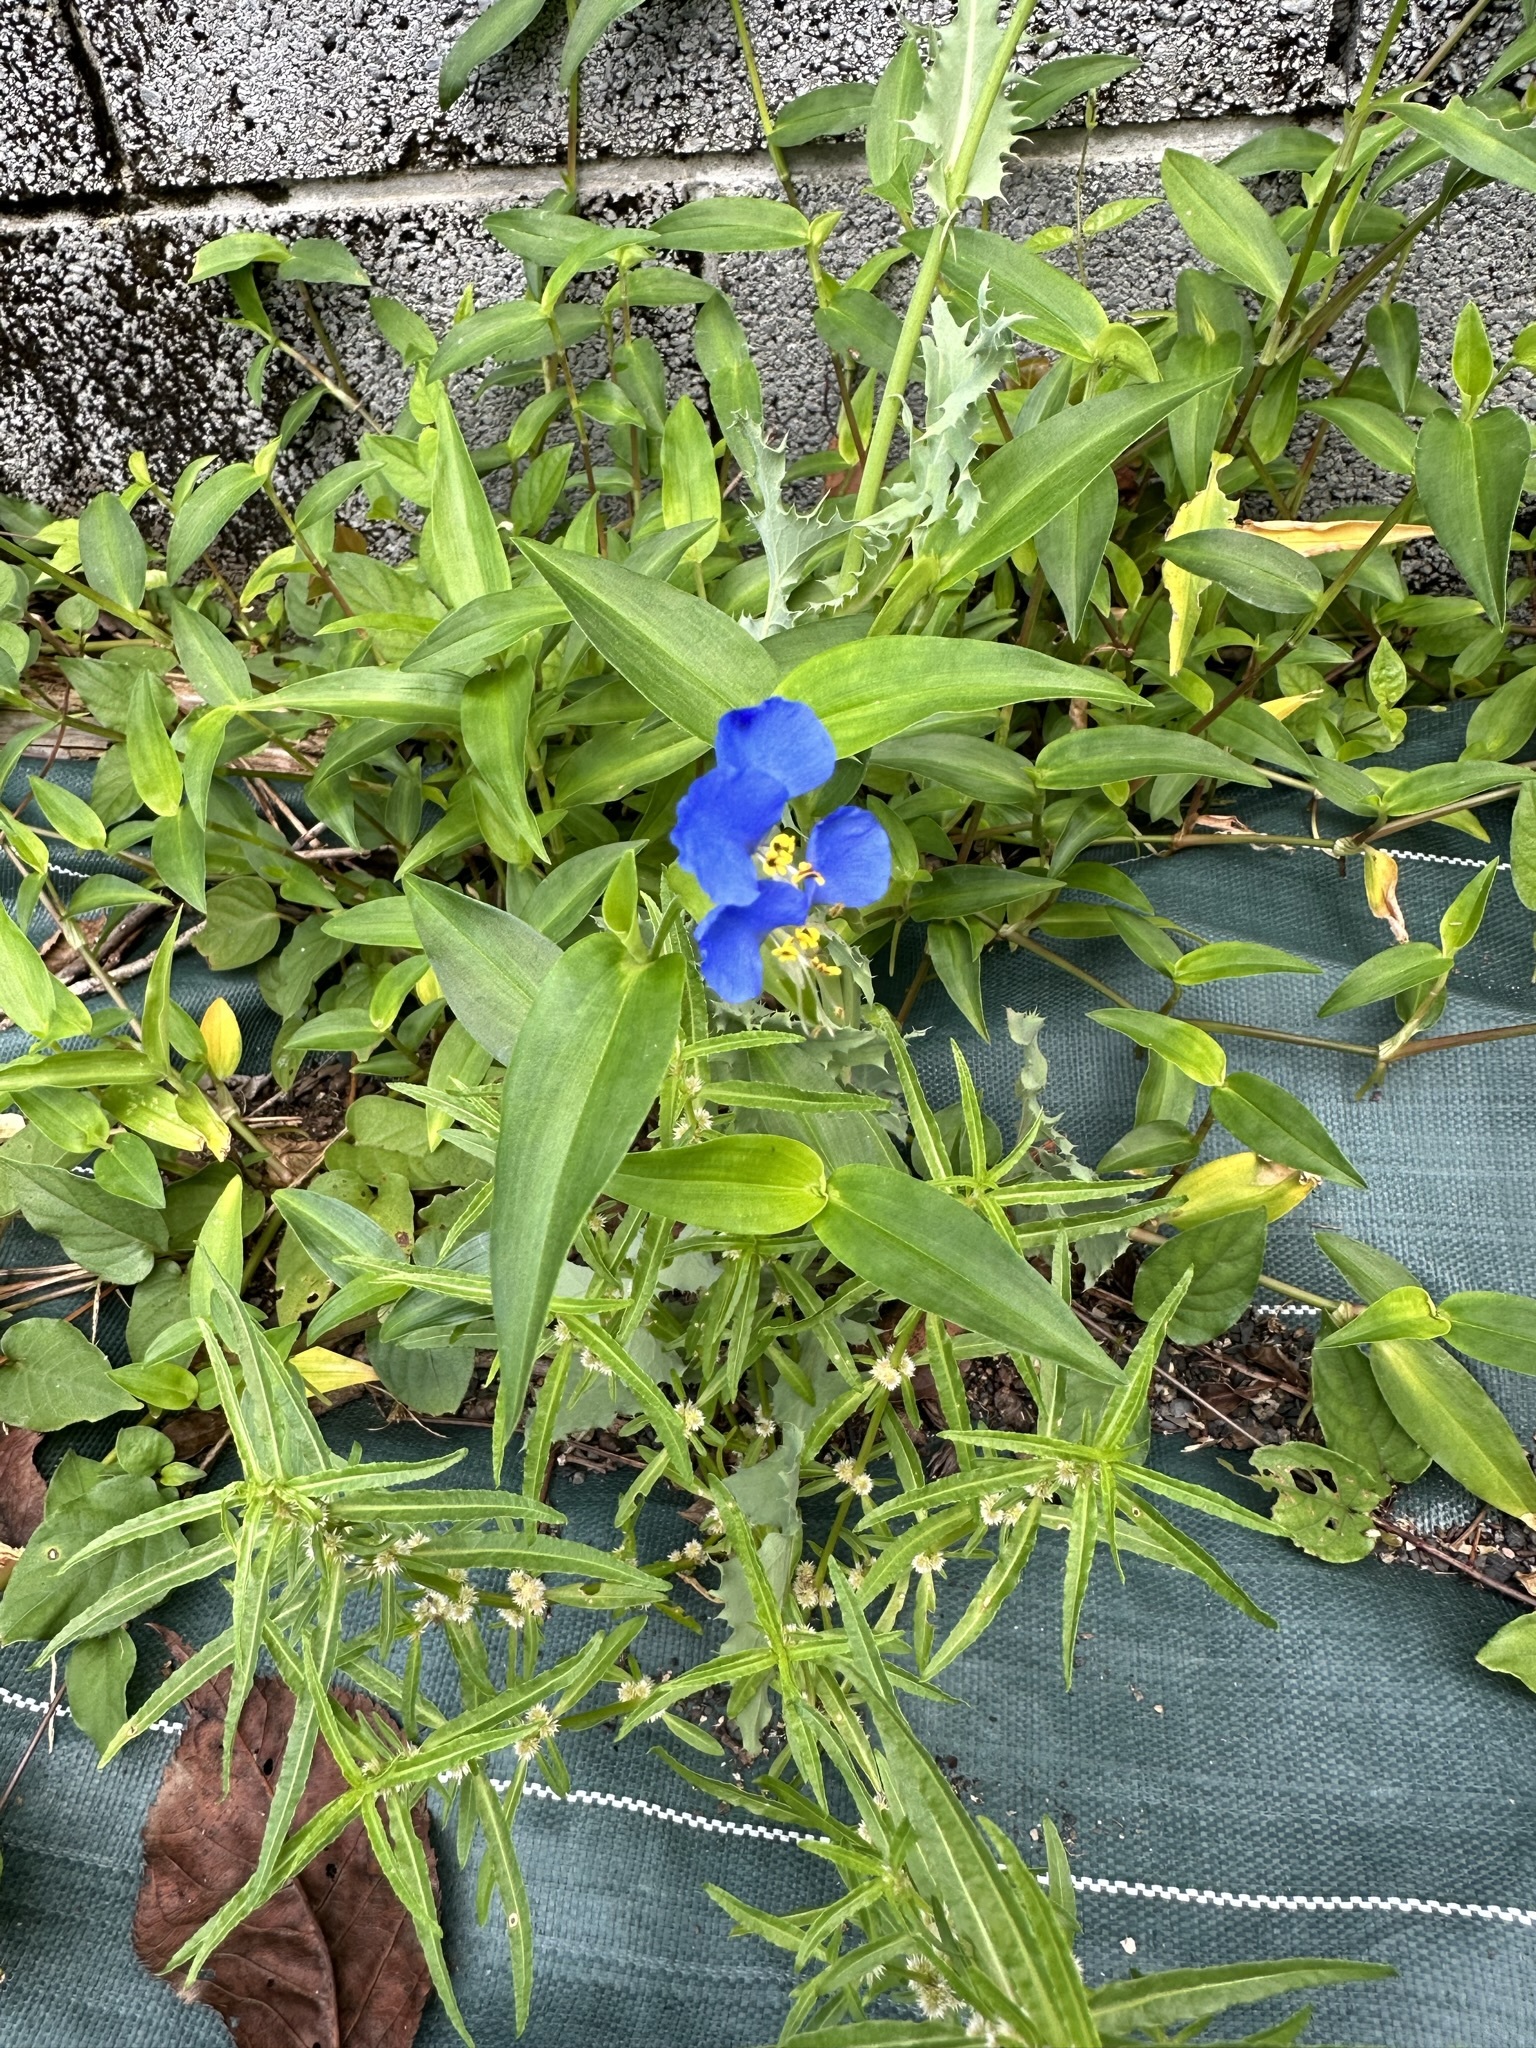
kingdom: Plantae
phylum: Tracheophyta
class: Liliopsida
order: Commelinales
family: Commelinaceae
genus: Commelina
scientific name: Commelina communis
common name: Asiatic dayflower
